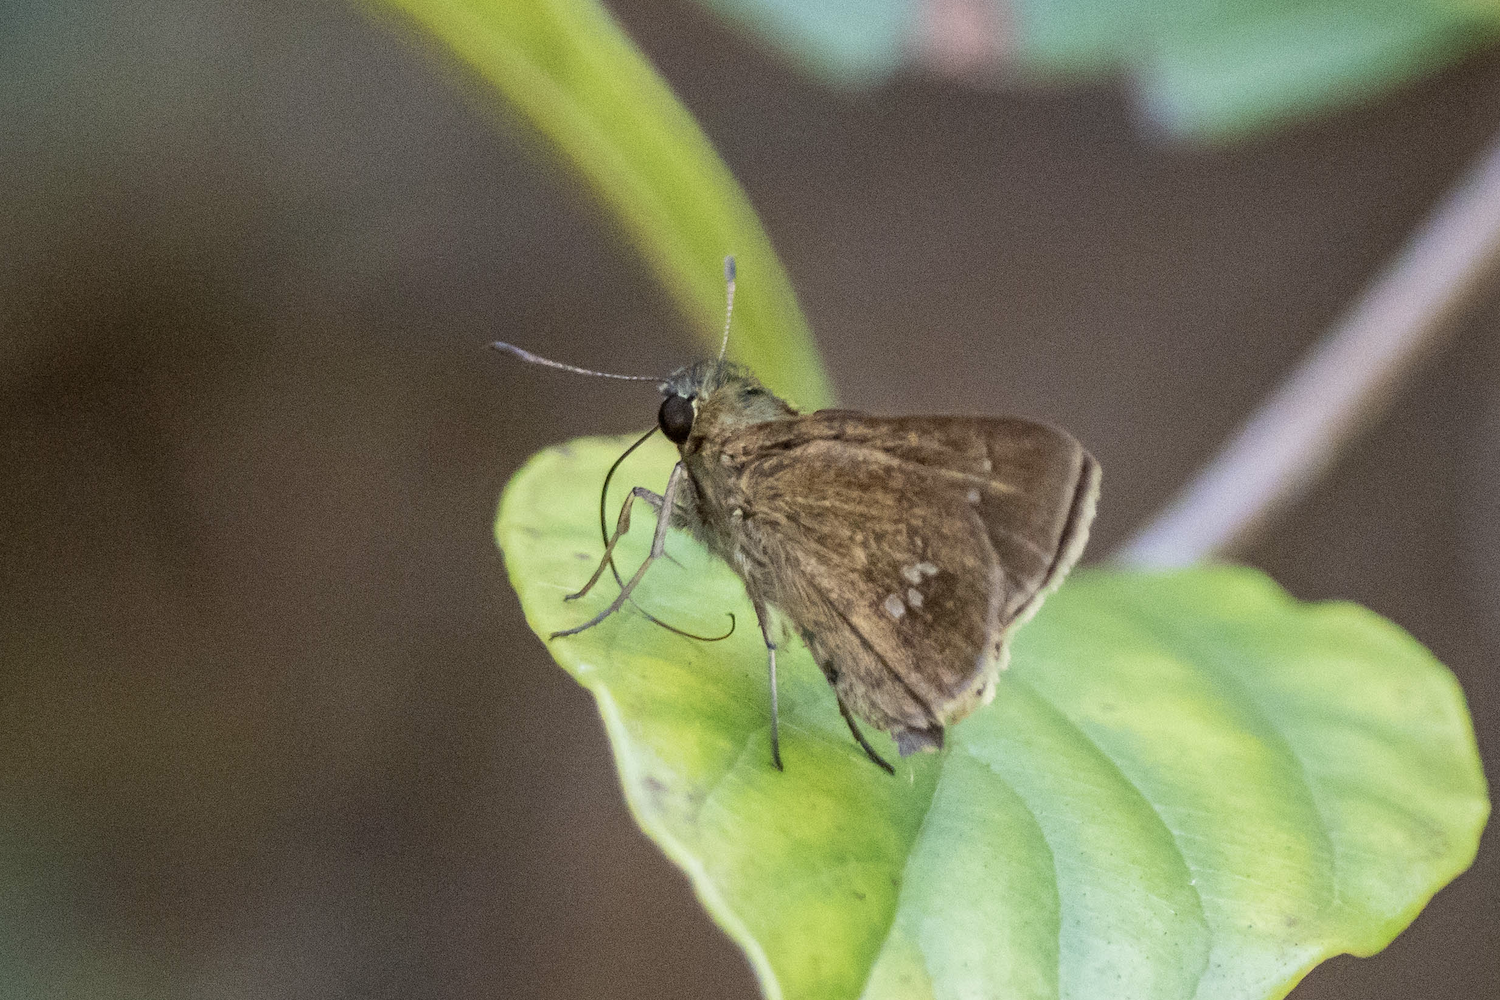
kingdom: Animalia
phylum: Arthropoda
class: Insecta
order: Lepidoptera
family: Hesperiidae
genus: Parnara
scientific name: Parnara ganga
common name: Continental swift
